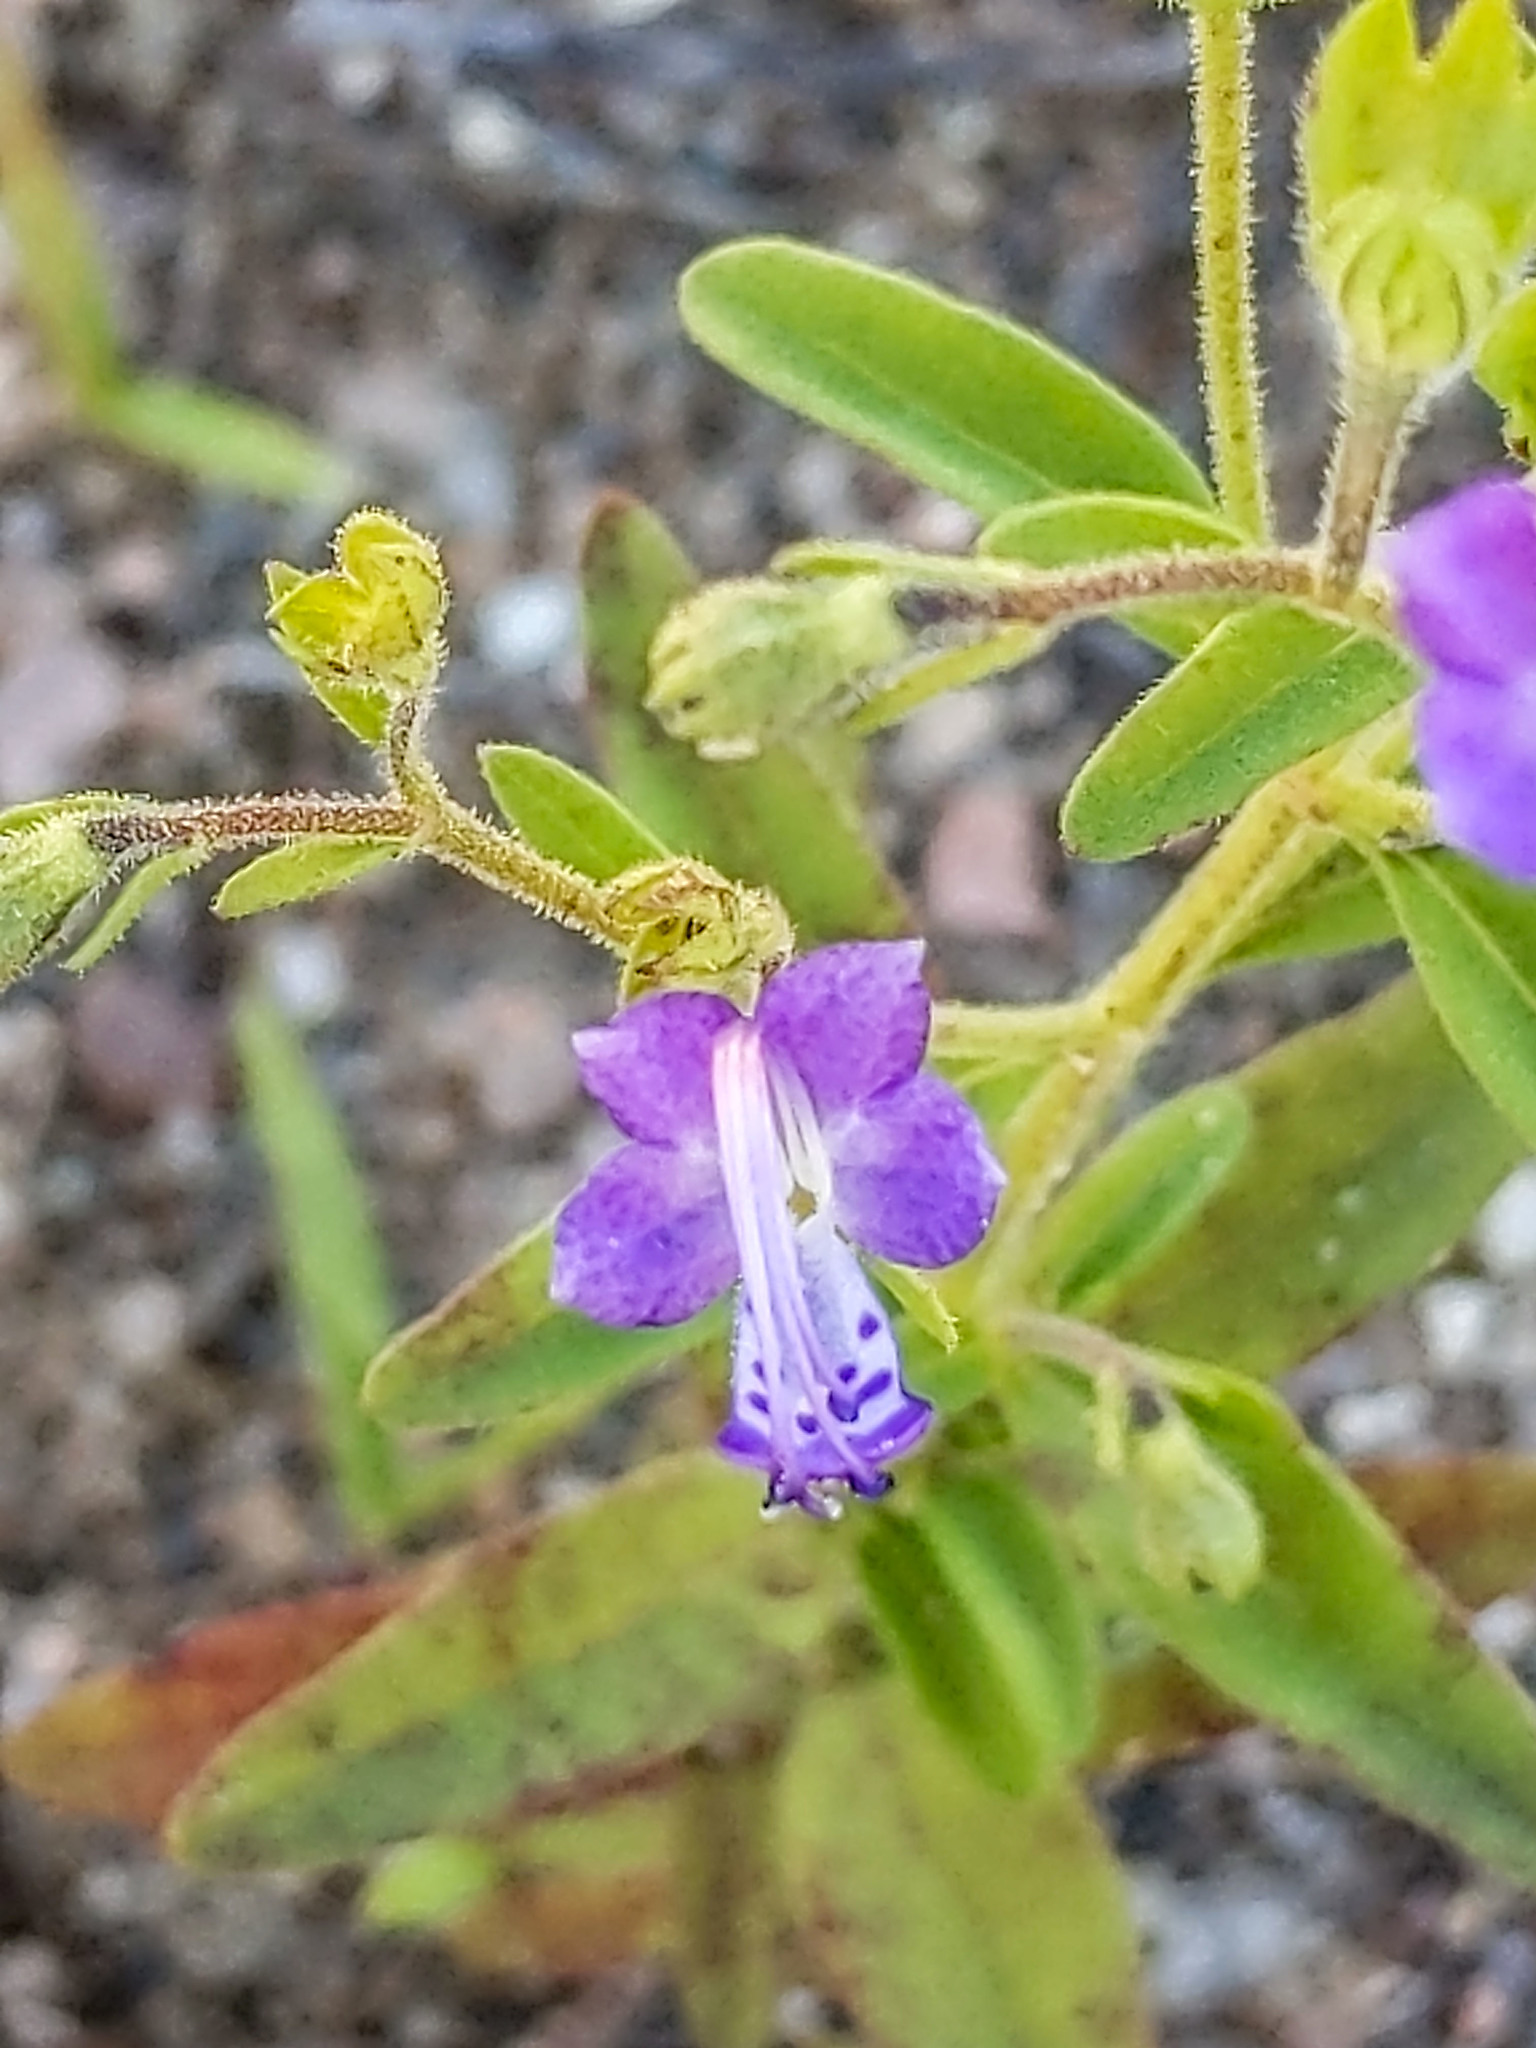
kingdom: Plantae
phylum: Tracheophyta
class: Magnoliopsida
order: Lamiales
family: Lamiaceae
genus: Trichostema
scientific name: Trichostema dichotomum
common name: Bastard pennyroyal
